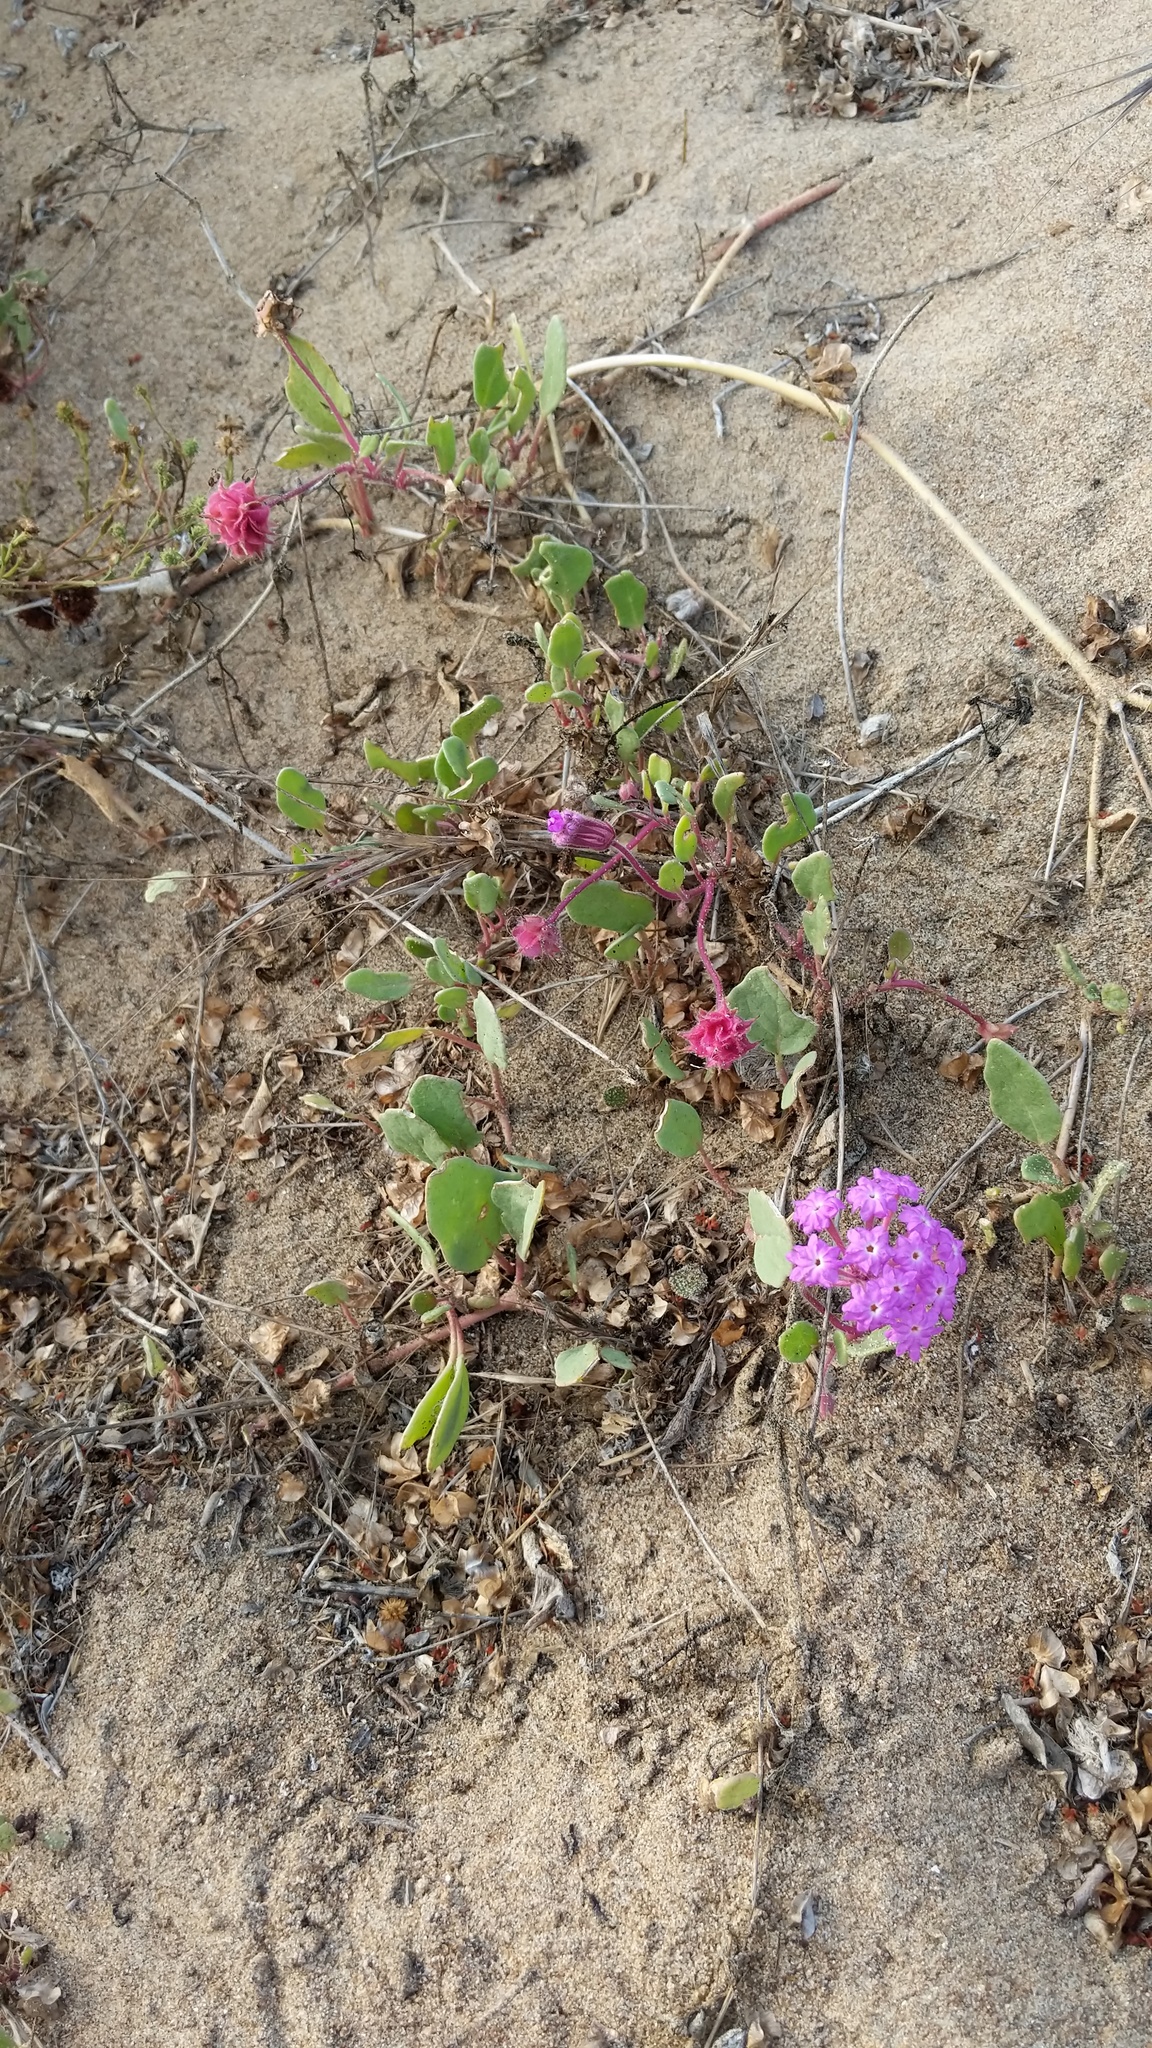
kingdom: Plantae
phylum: Tracheophyta
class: Magnoliopsida
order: Caryophyllales
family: Nyctaginaceae
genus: Abronia
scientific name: Abronia umbellata
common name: Sand-verbena
